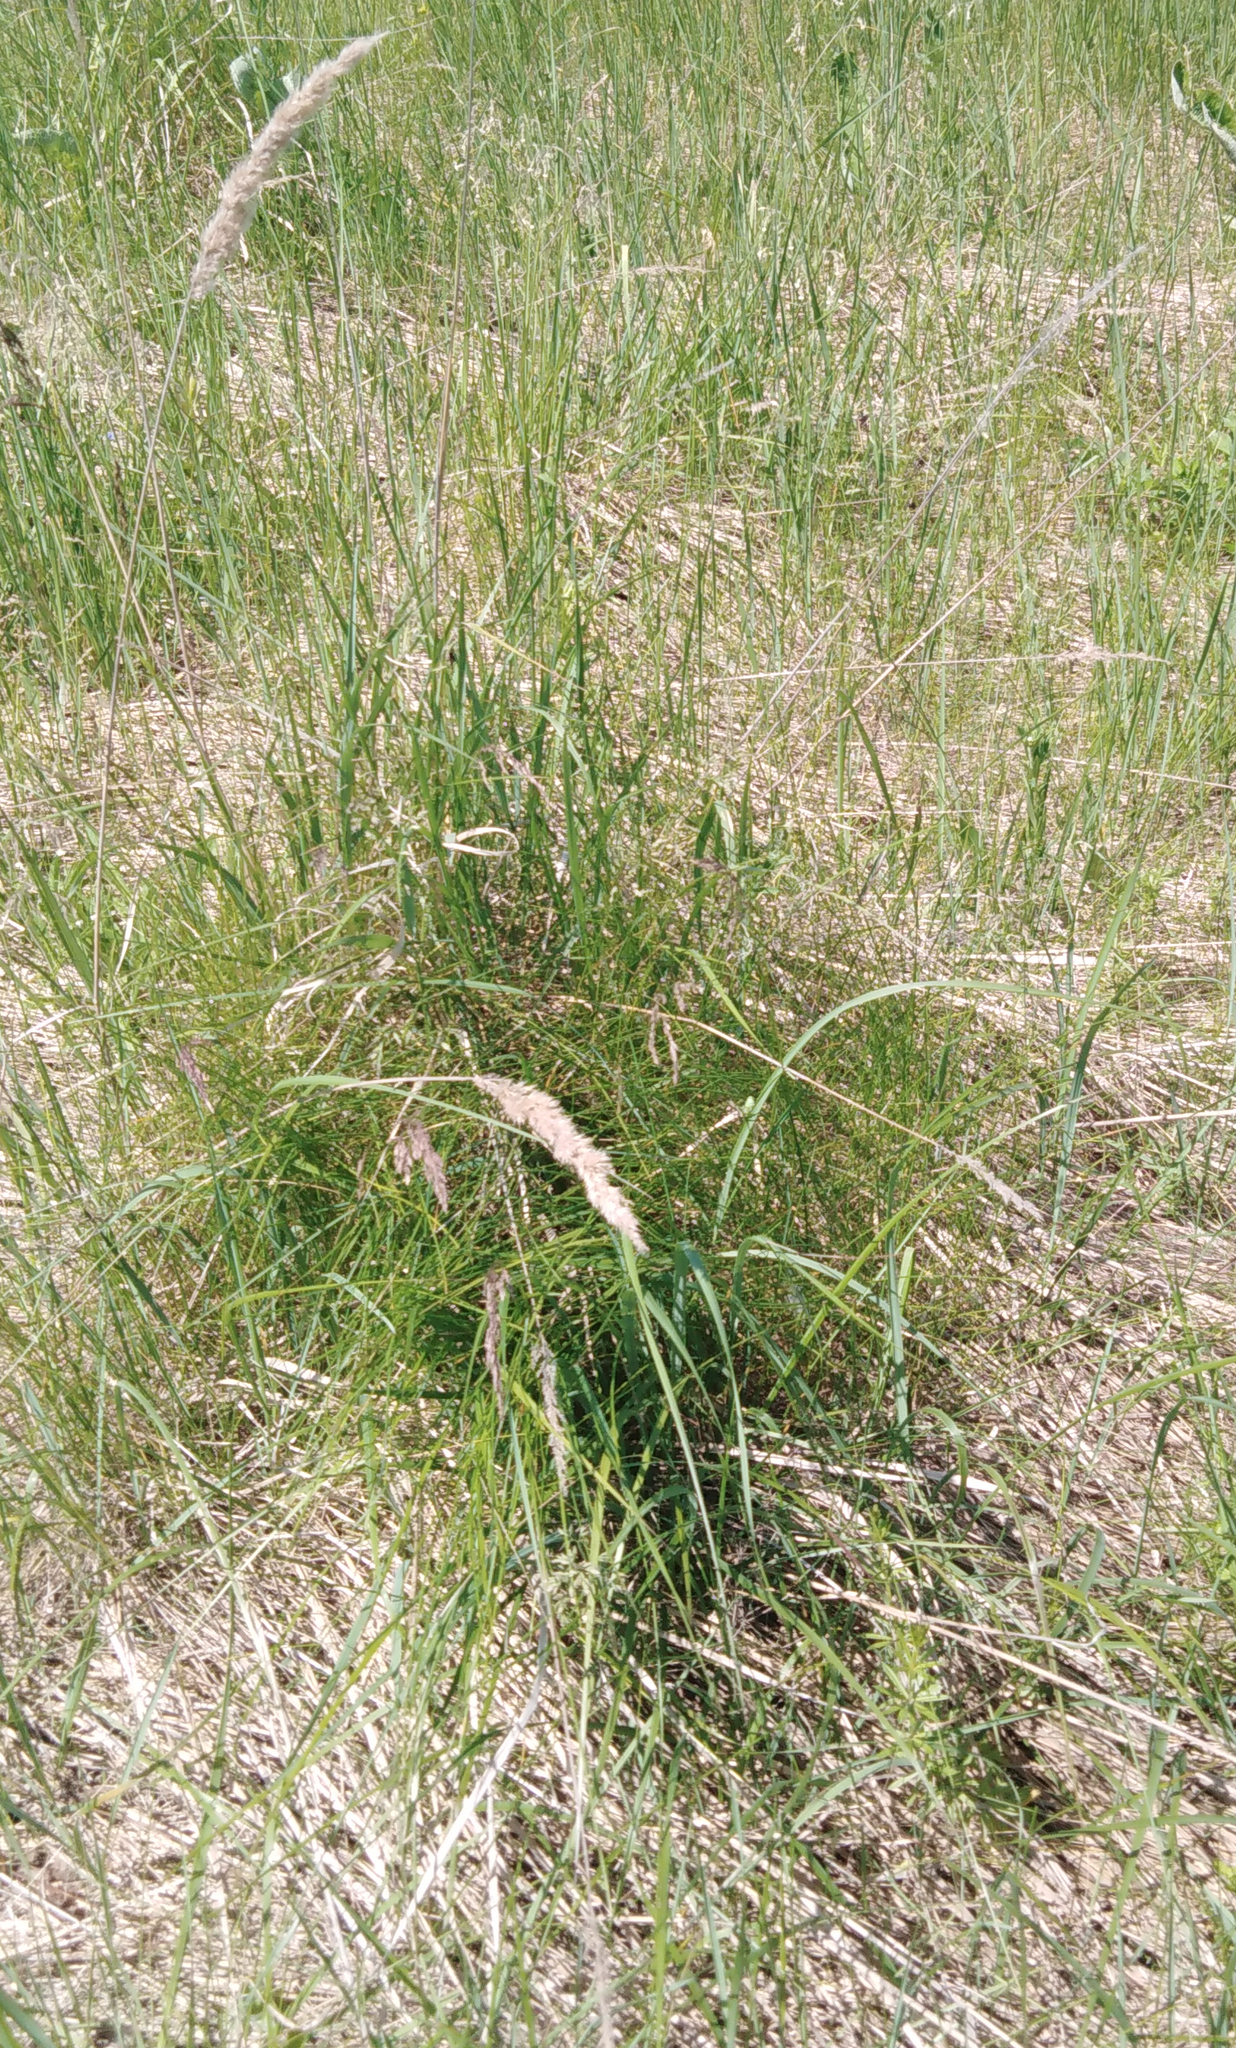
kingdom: Plantae
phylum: Tracheophyta
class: Liliopsida
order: Poales
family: Poaceae
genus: Calamagrostis
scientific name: Calamagrostis epigejos
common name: Wood small-reed
